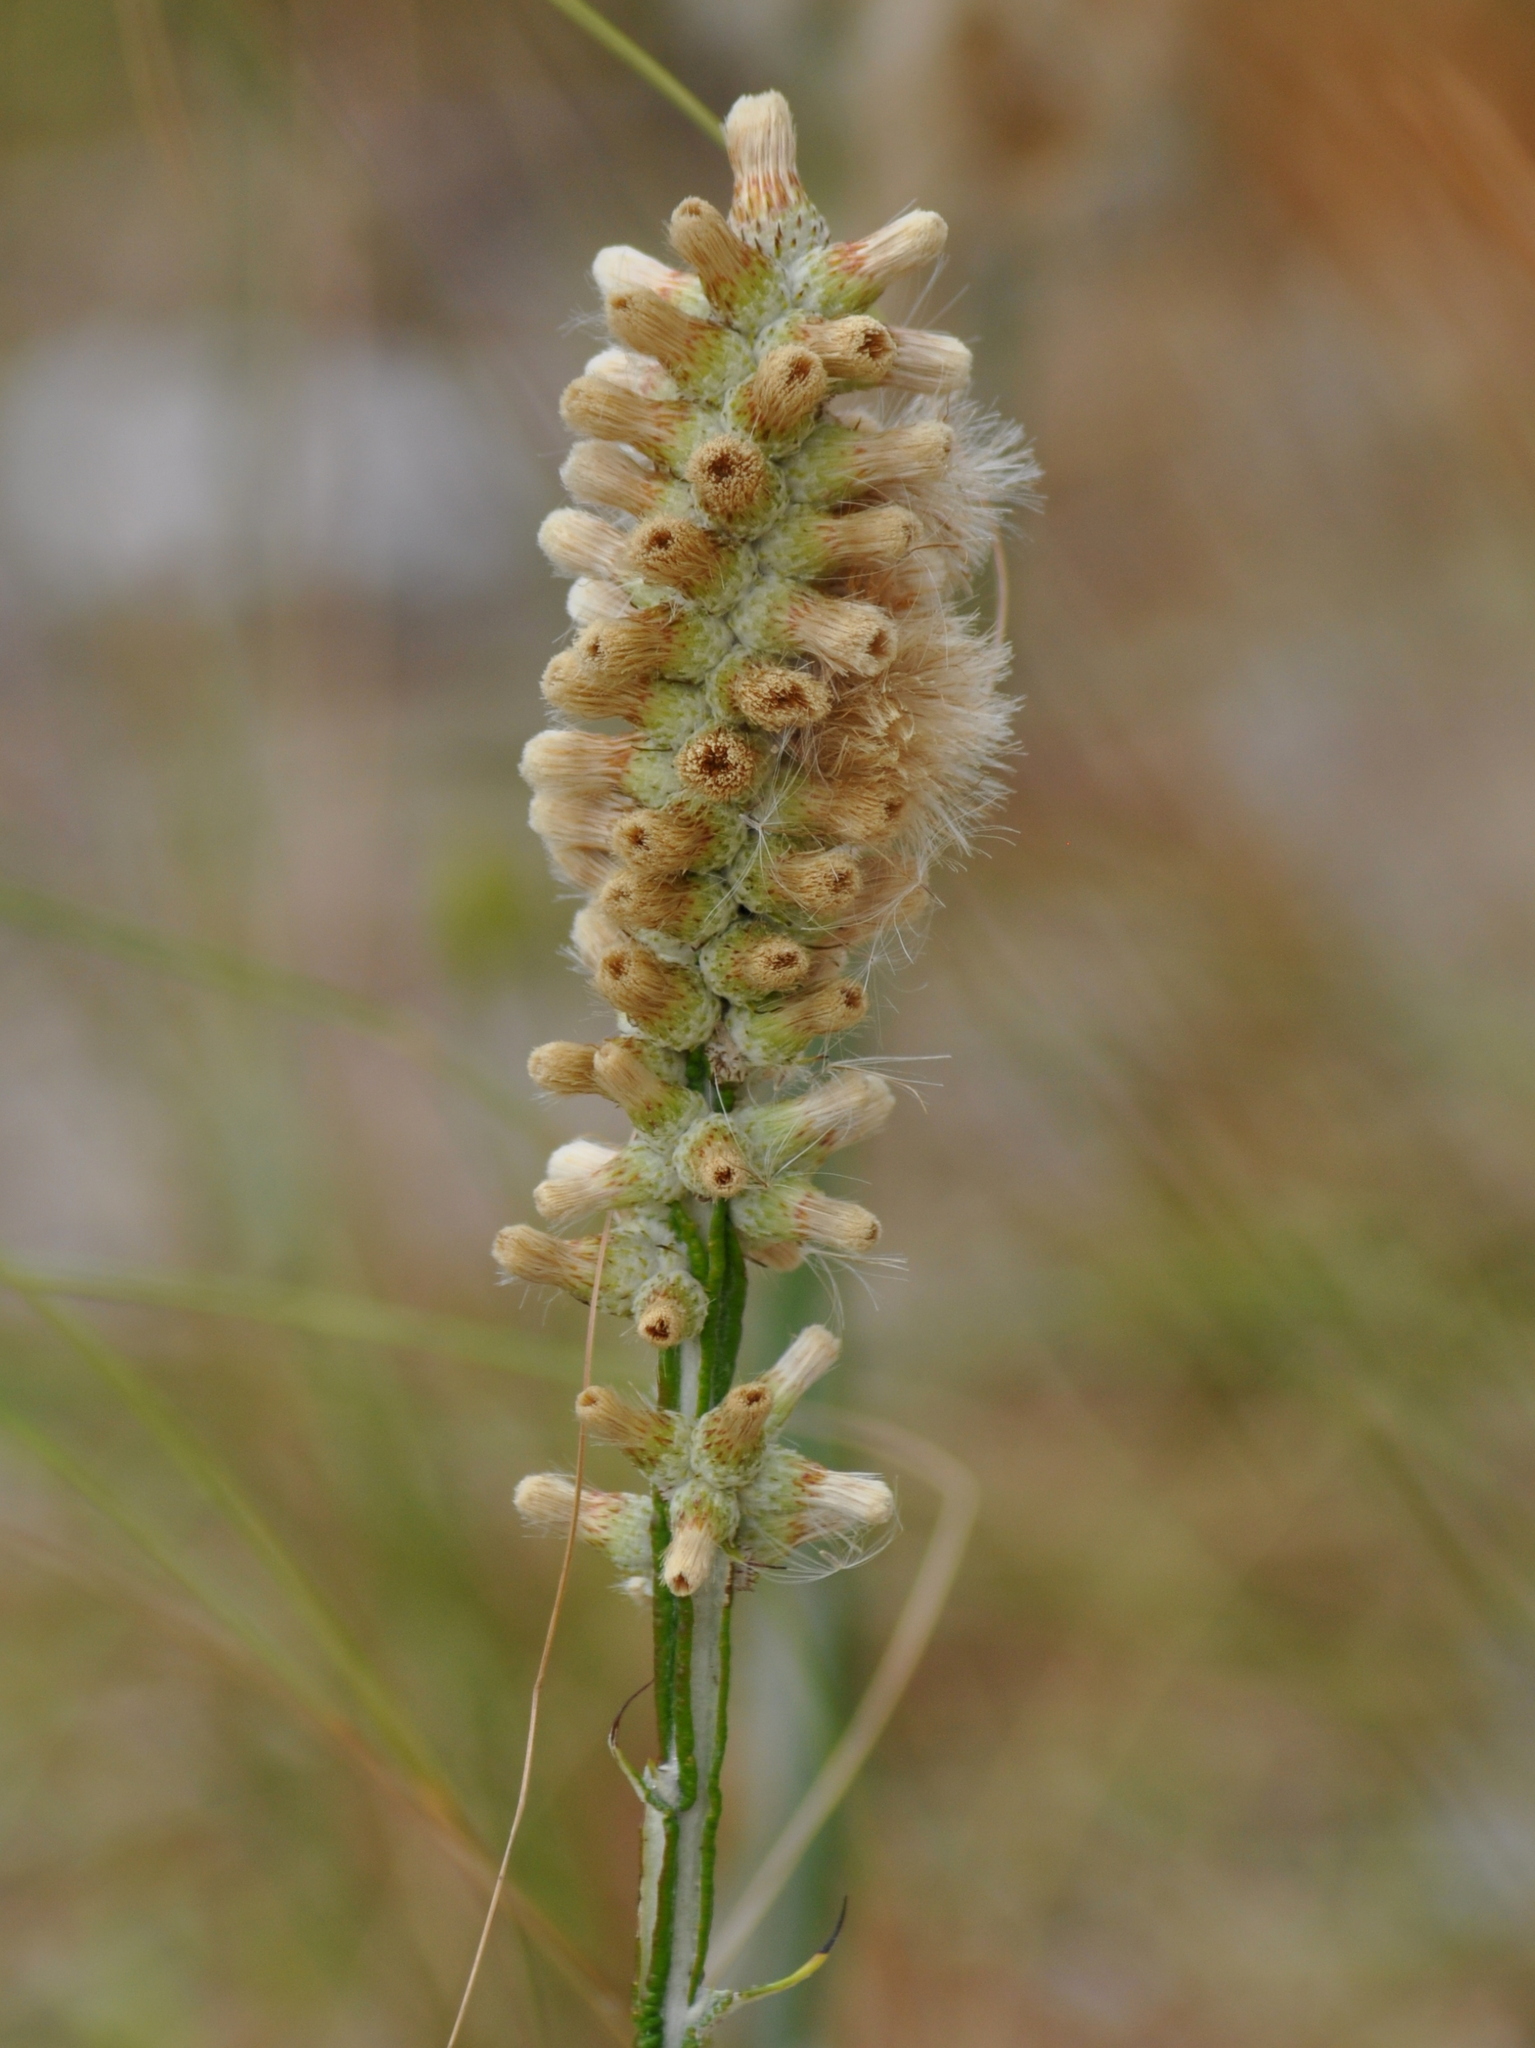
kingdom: Plantae
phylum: Tracheophyta
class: Magnoliopsida
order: Asterales
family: Asteraceae
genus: Pterocaulon
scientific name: Pterocaulon alopecuroides
